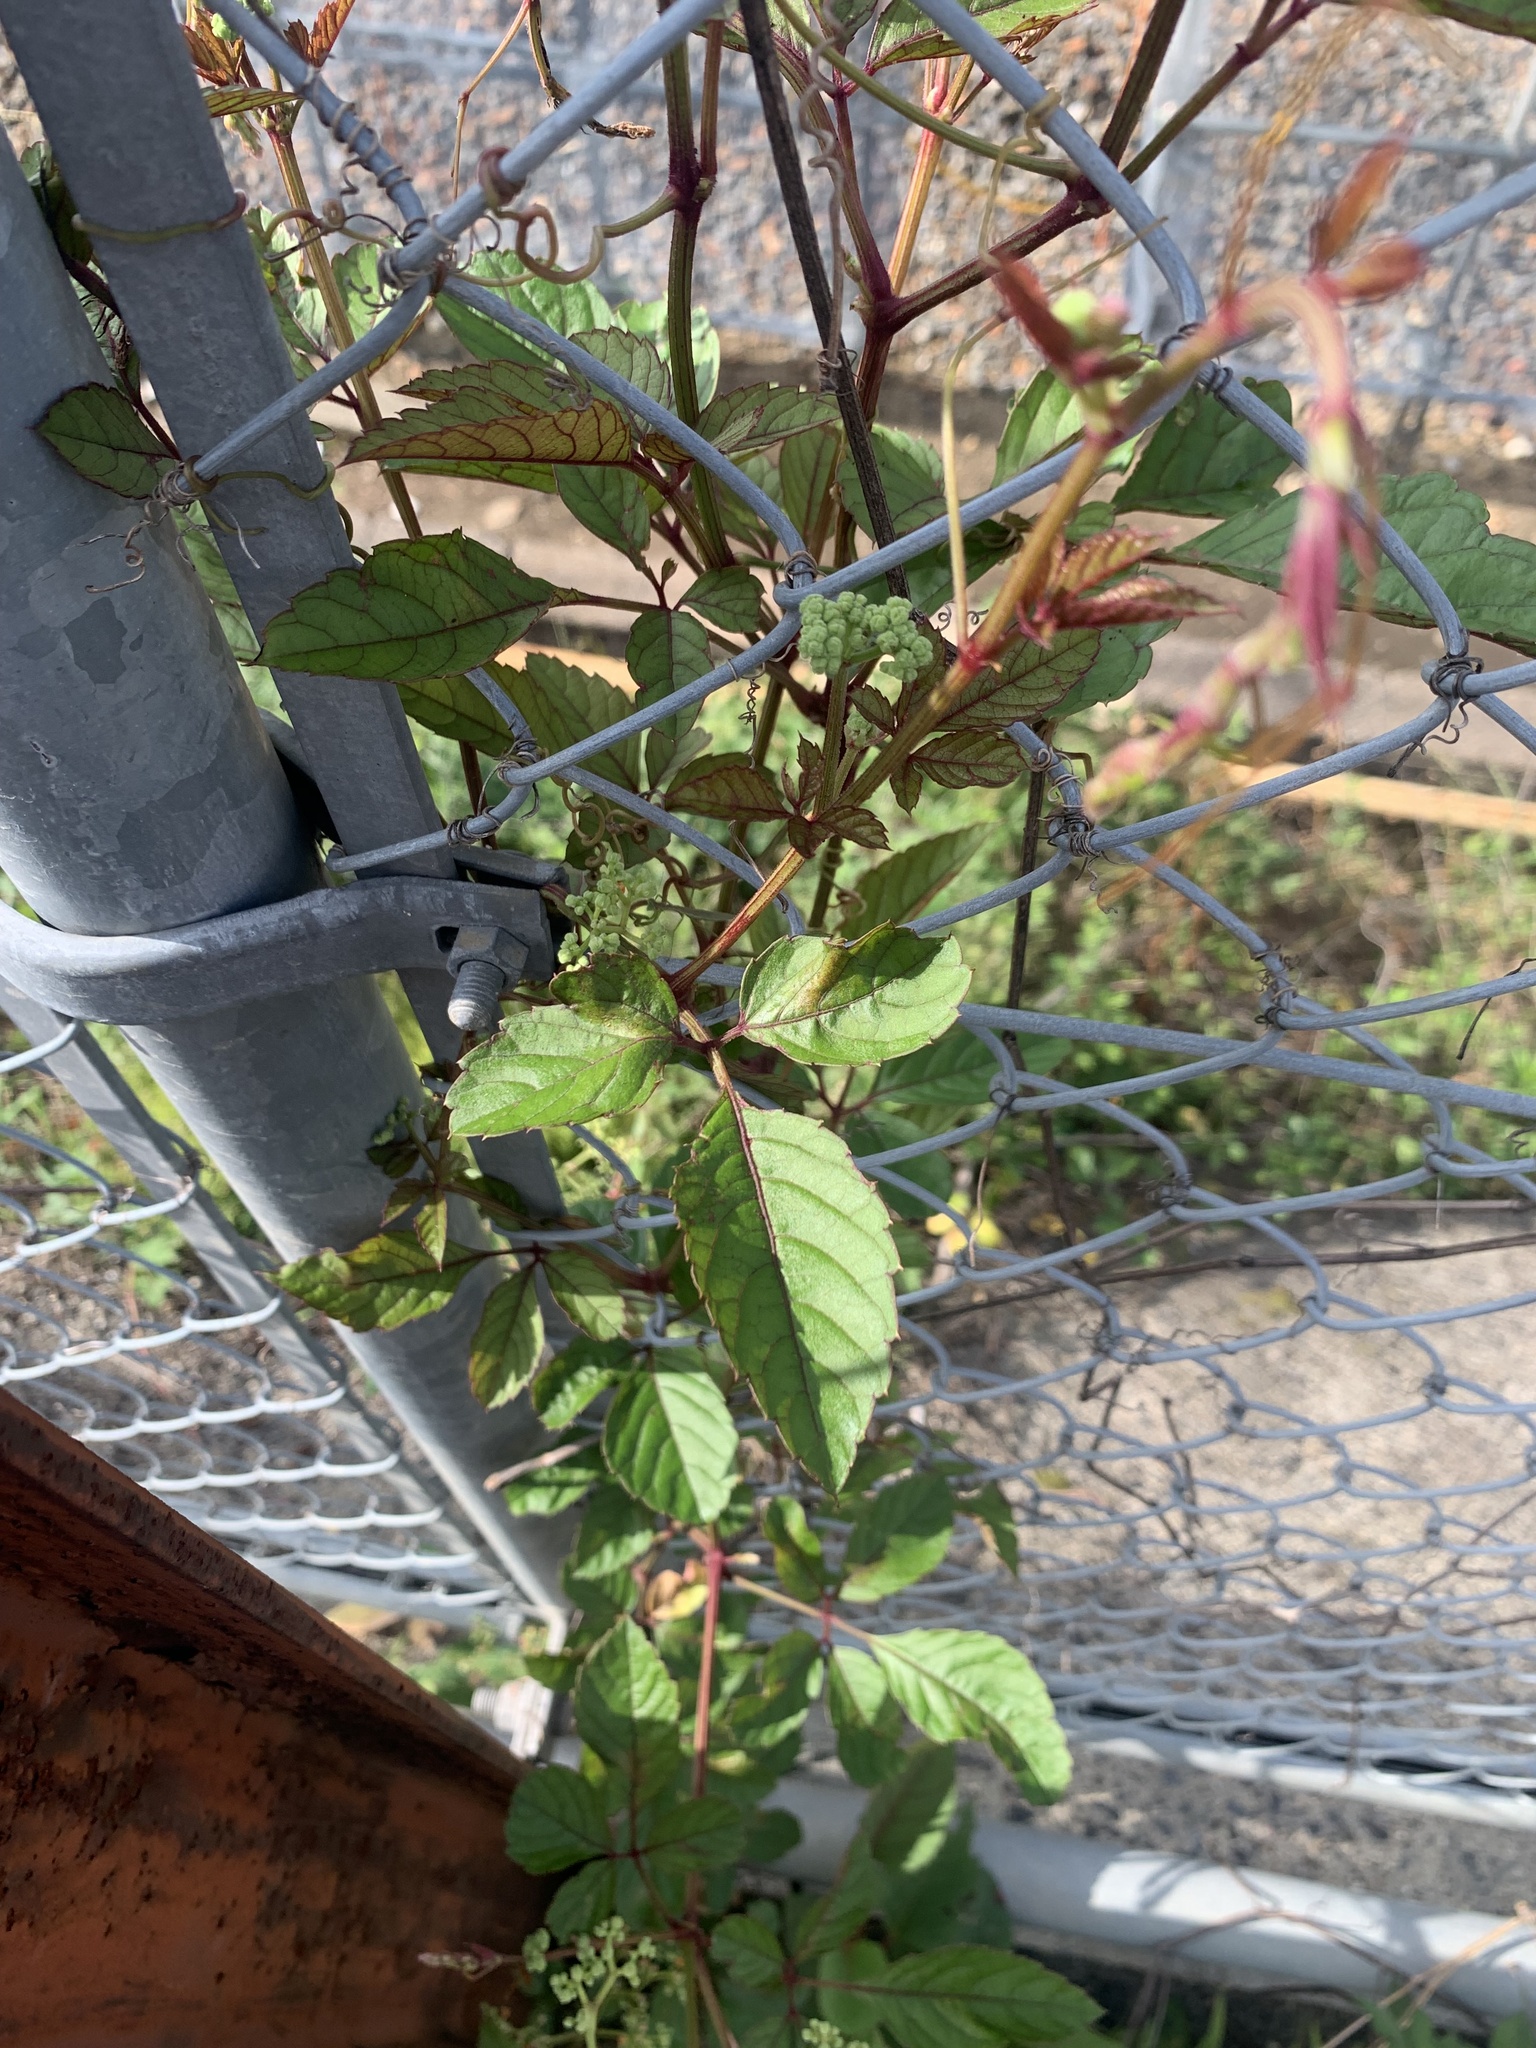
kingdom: Plantae
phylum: Tracheophyta
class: Magnoliopsida
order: Vitales
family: Vitaceae
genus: Causonis
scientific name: Causonis japonica
